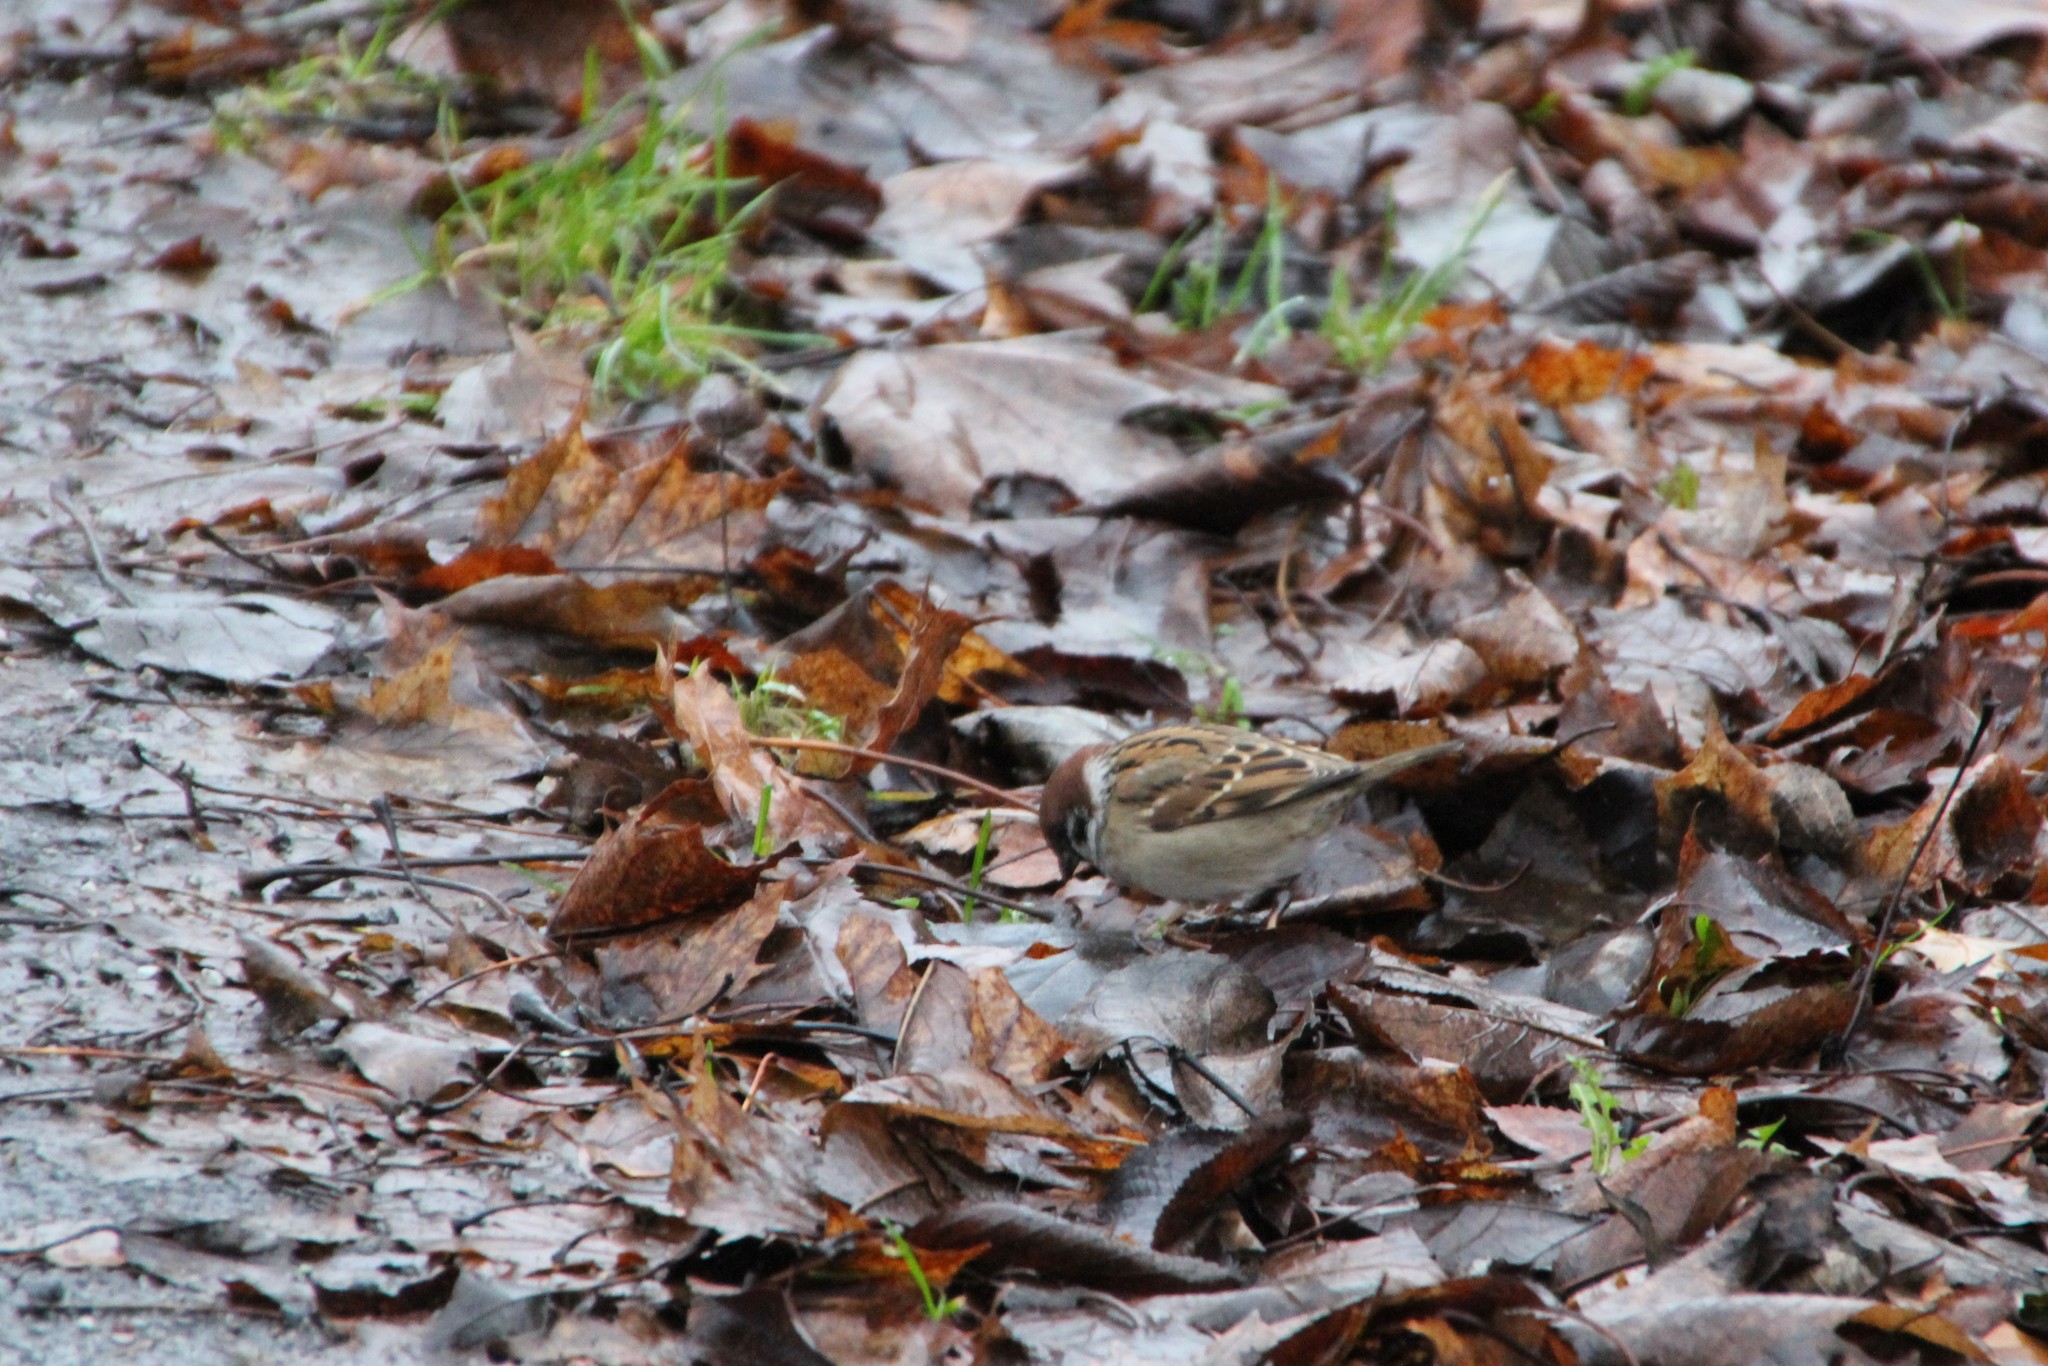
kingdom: Animalia
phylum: Chordata
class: Aves
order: Passeriformes
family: Passeridae
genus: Passer
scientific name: Passer montanus
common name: Eurasian tree sparrow
